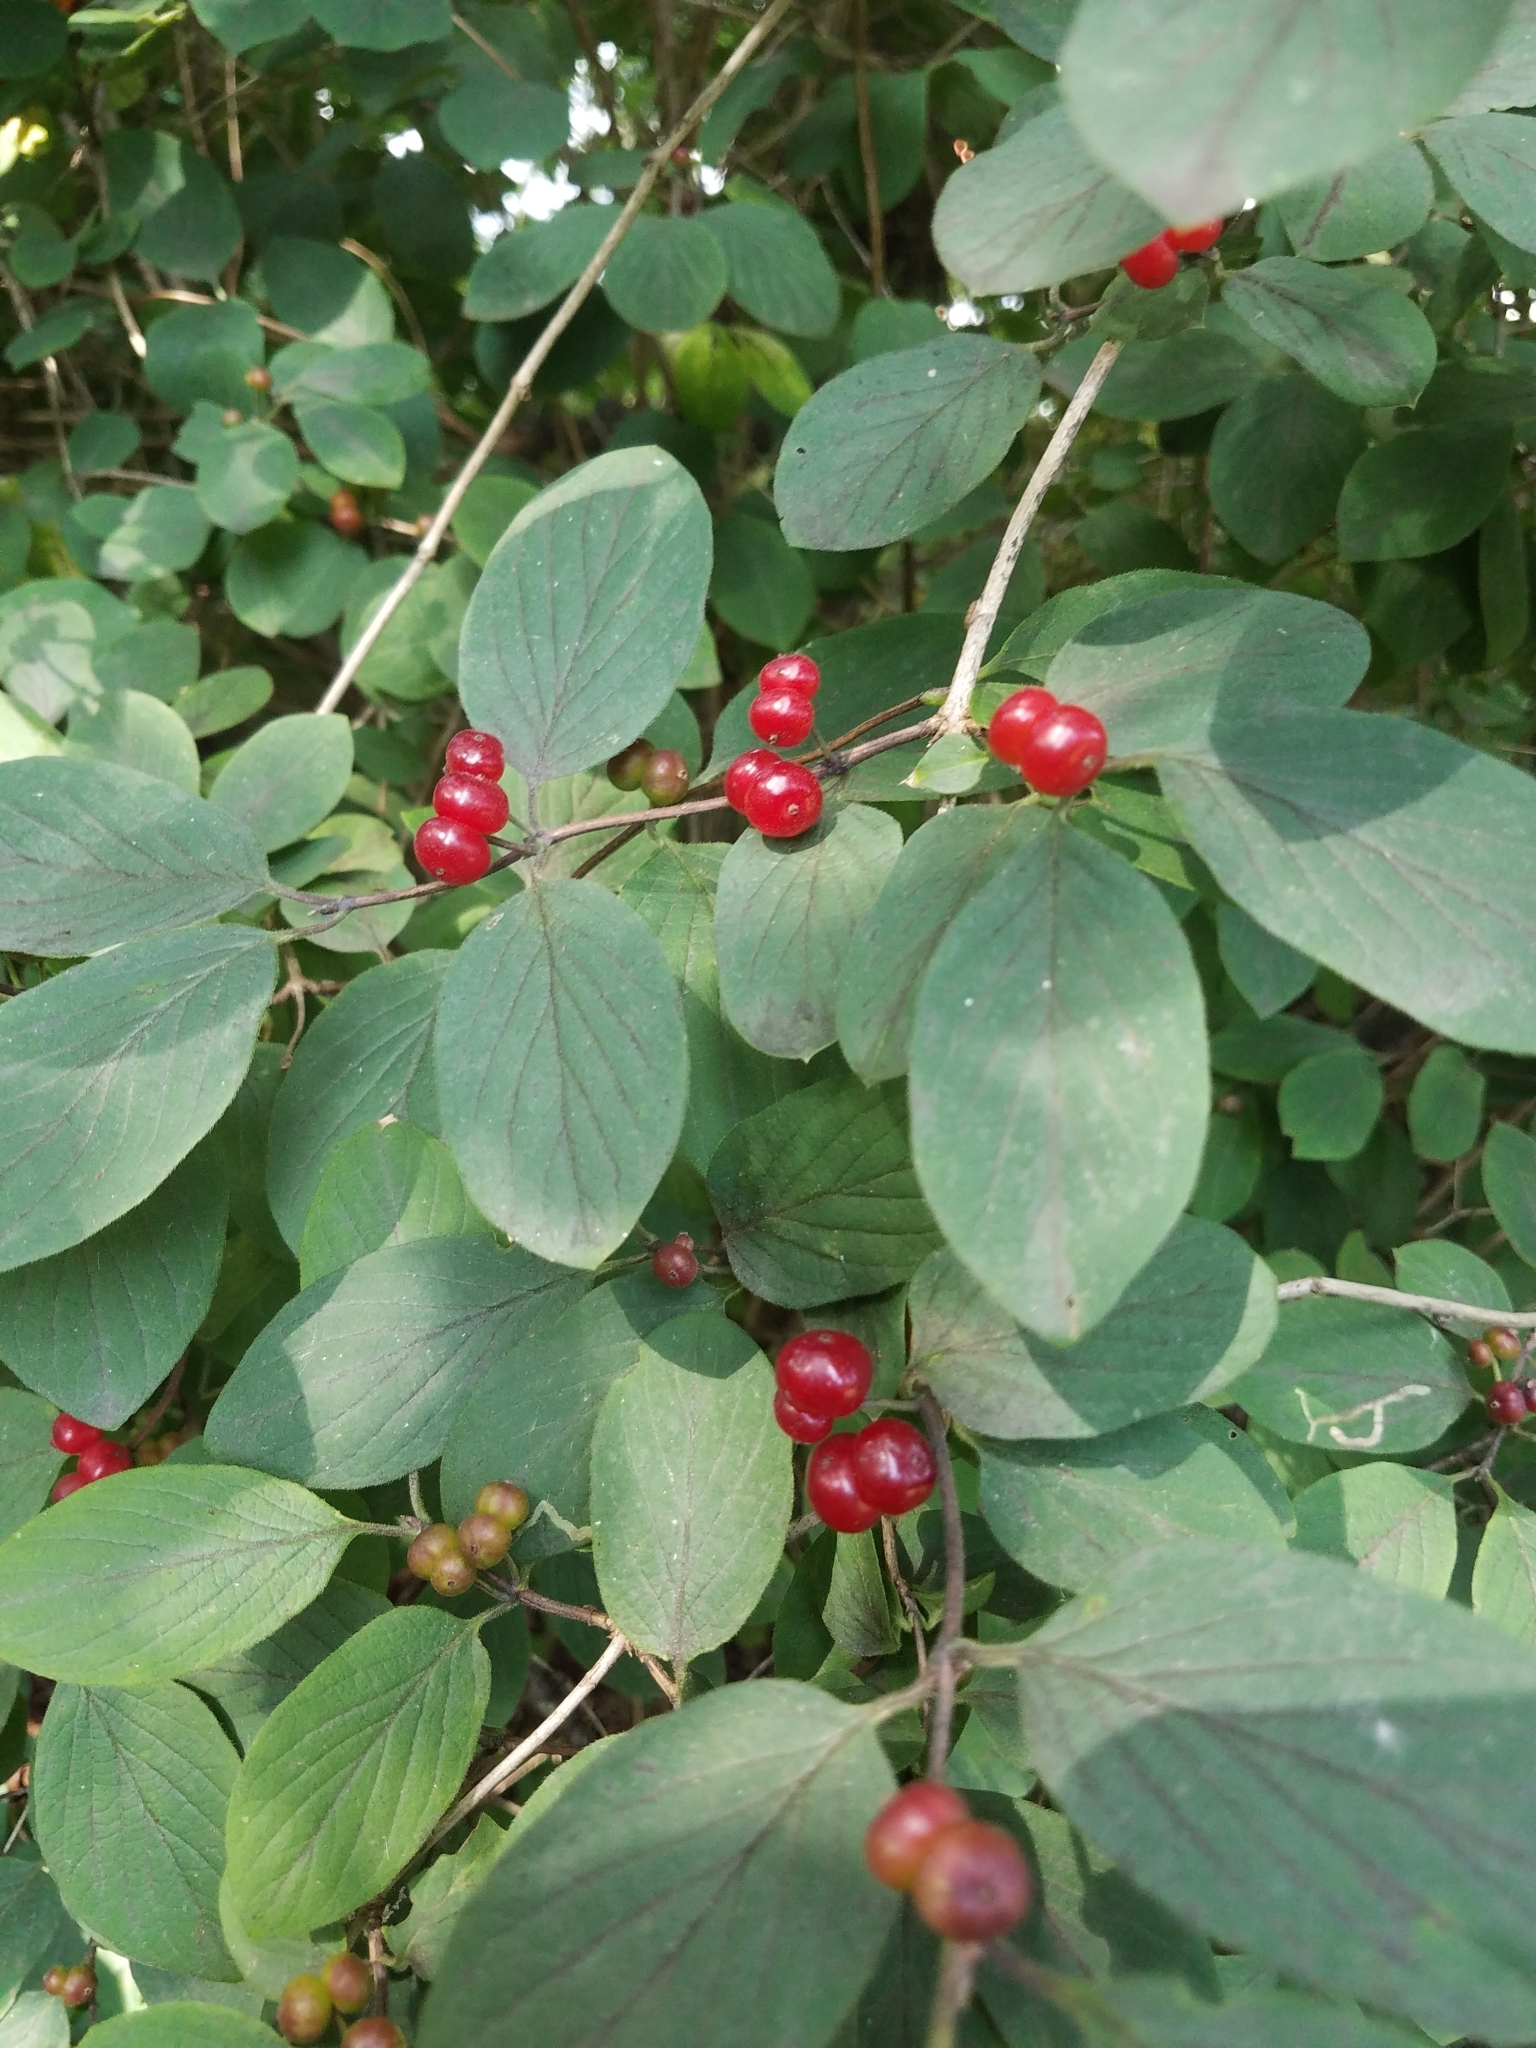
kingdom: Plantae
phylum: Tracheophyta
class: Magnoliopsida
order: Dipsacales
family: Caprifoliaceae
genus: Lonicera
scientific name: Lonicera xylosteum
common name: Fly honeysuckle
